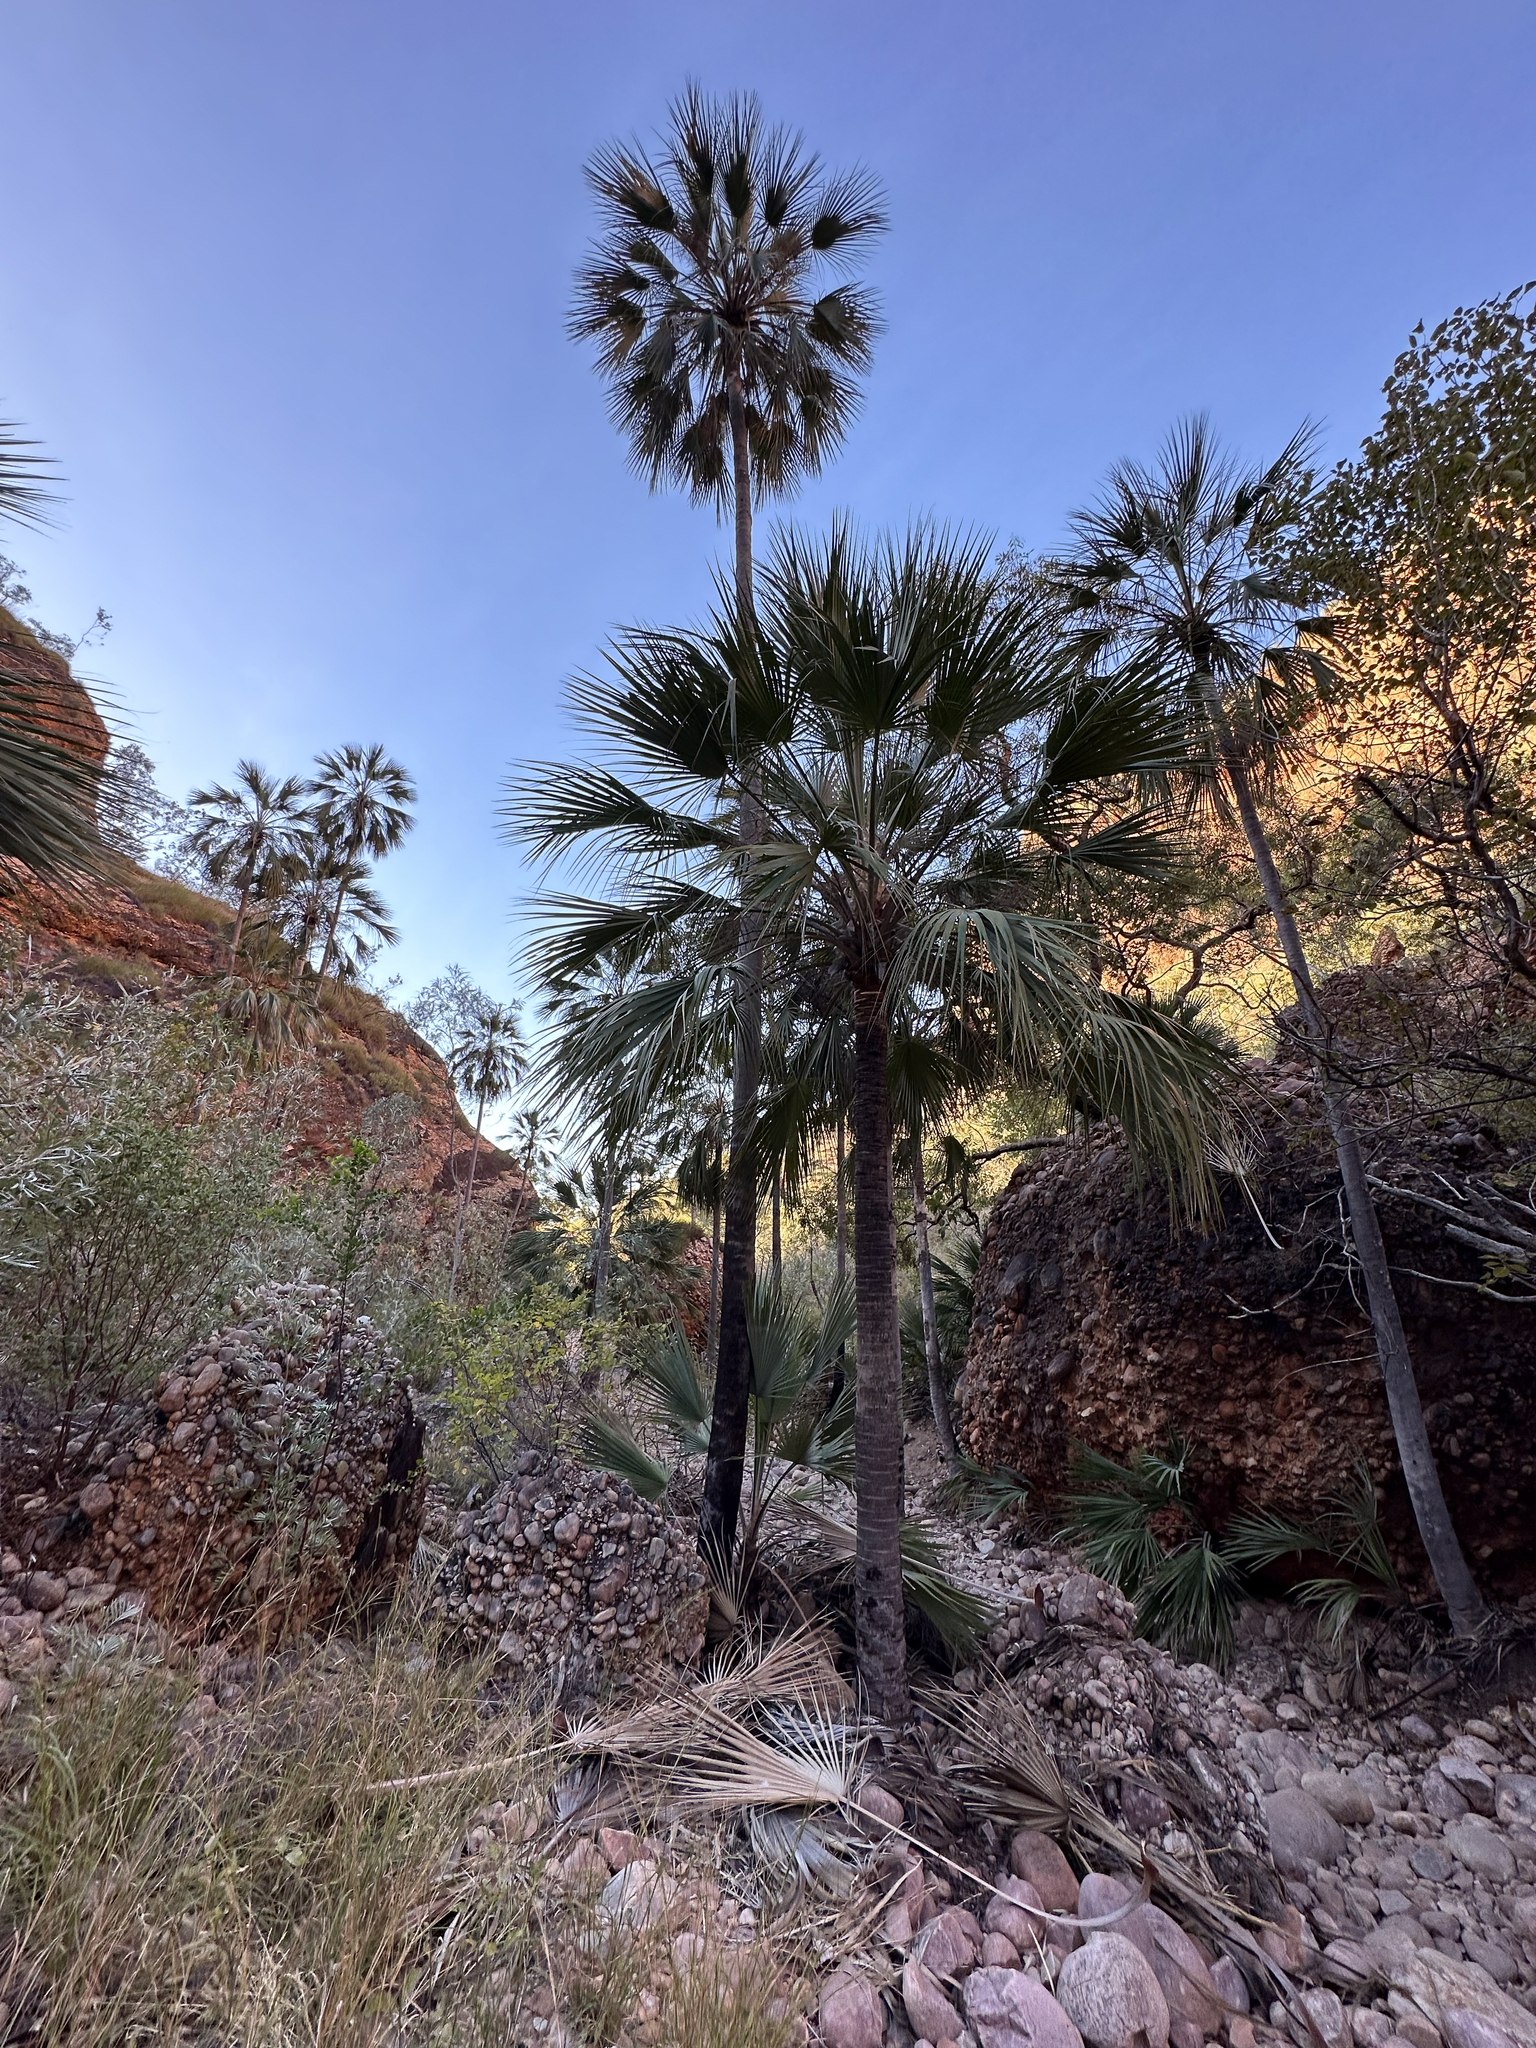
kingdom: Plantae
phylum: Tracheophyta
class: Liliopsida
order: Arecales
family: Arecaceae
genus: Livistona
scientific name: Livistona victoriae
